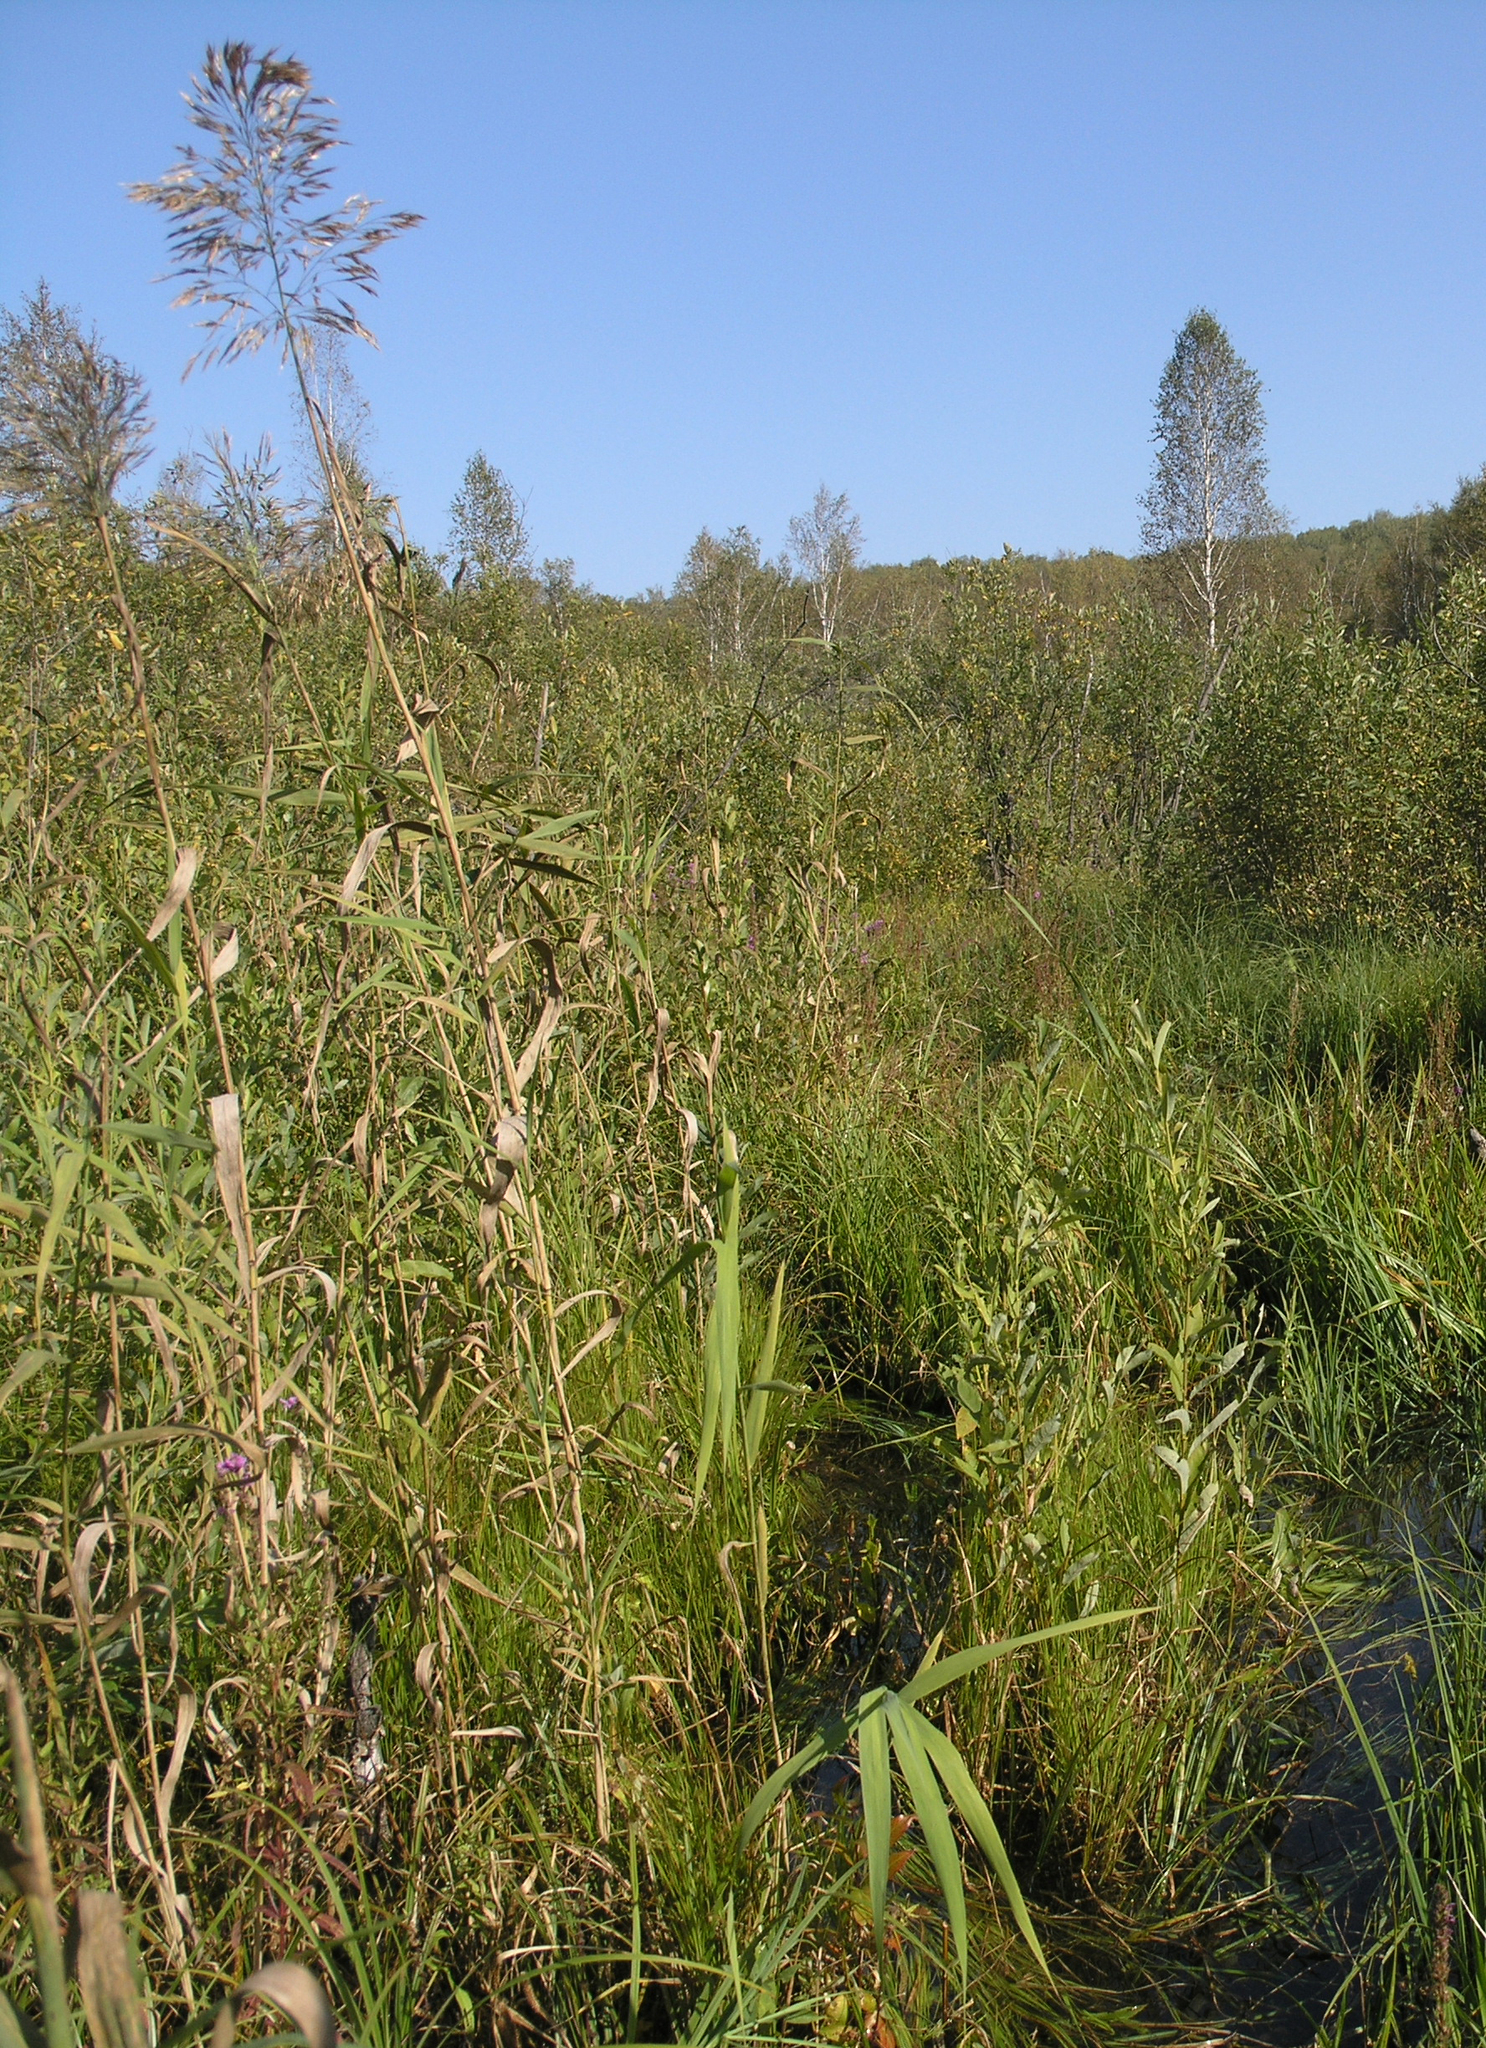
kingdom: Plantae
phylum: Tracheophyta
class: Liliopsida
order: Poales
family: Poaceae
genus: Phragmites
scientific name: Phragmites australis
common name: Common reed
